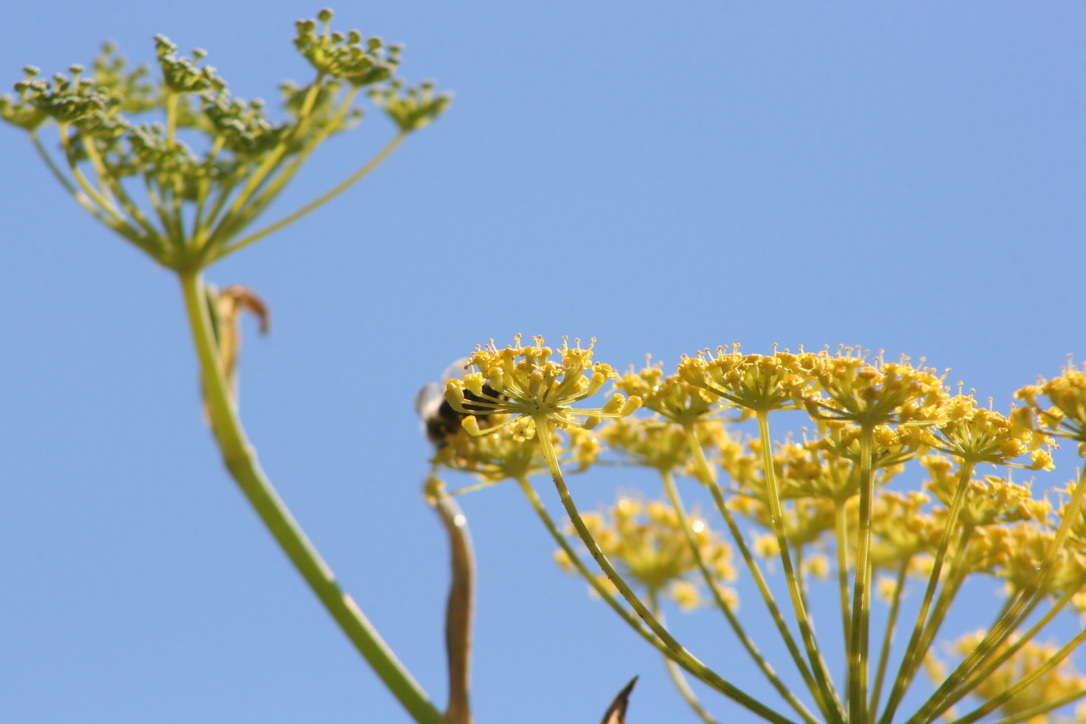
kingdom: Animalia
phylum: Arthropoda
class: Insecta
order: Hymenoptera
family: Eumenidae
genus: Polistes
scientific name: Polistes dominula
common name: Paper wasp
